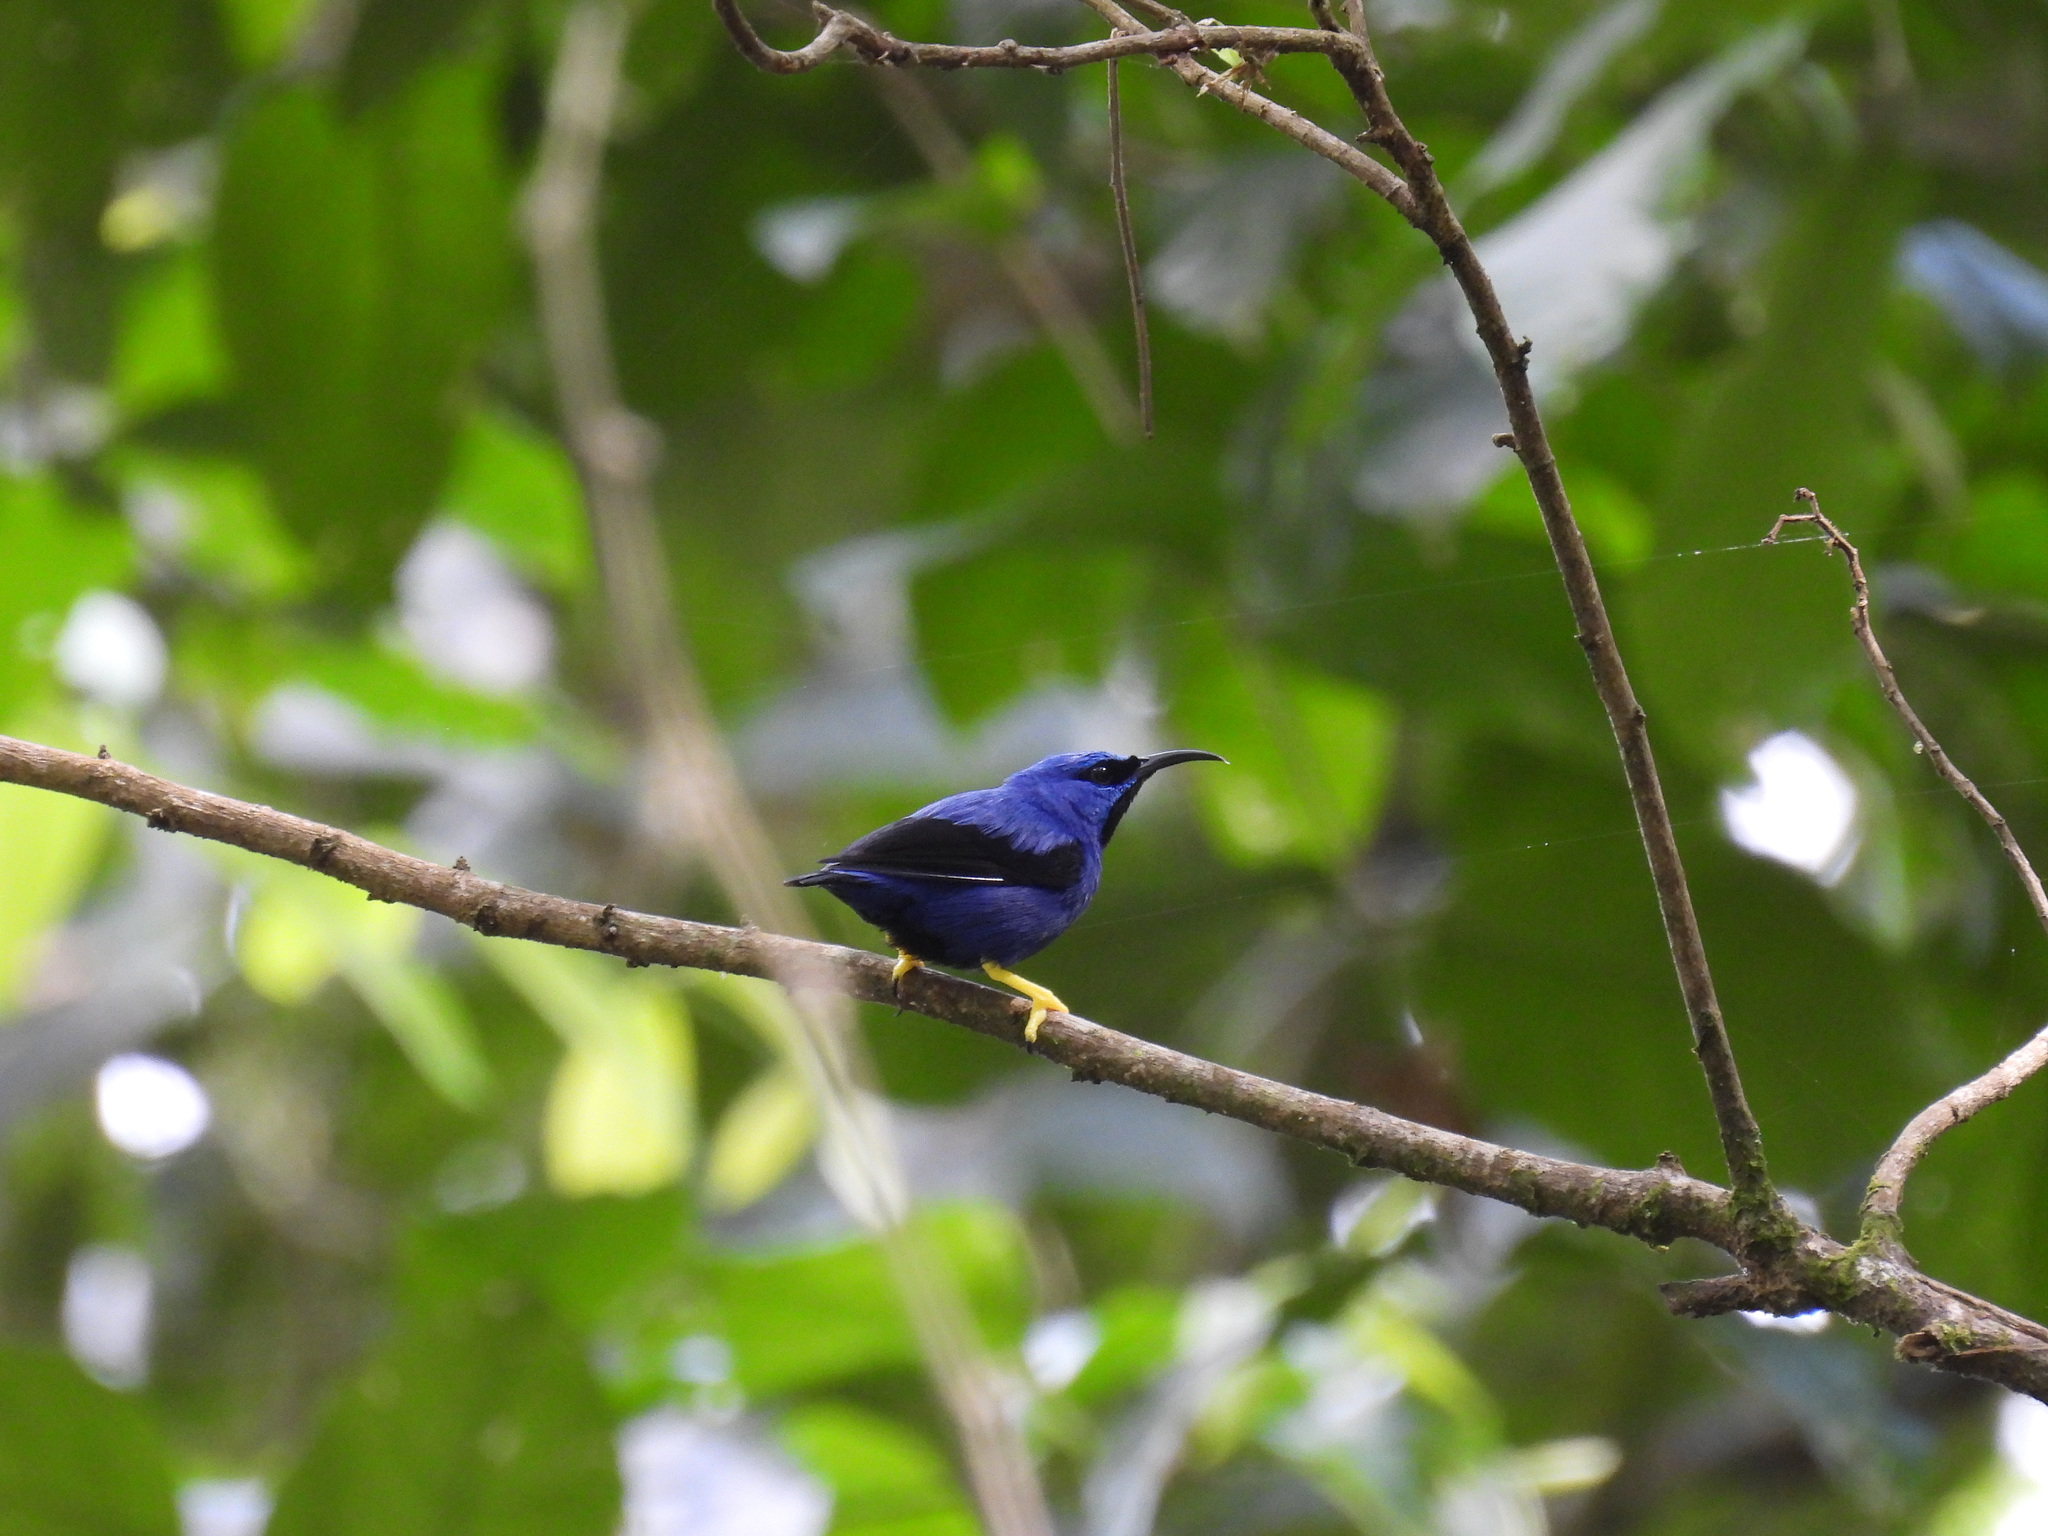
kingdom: Animalia
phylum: Chordata
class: Aves
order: Passeriformes
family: Thraupidae
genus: Cyanerpes
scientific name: Cyanerpes caeruleus
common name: Purple honeycreeper
